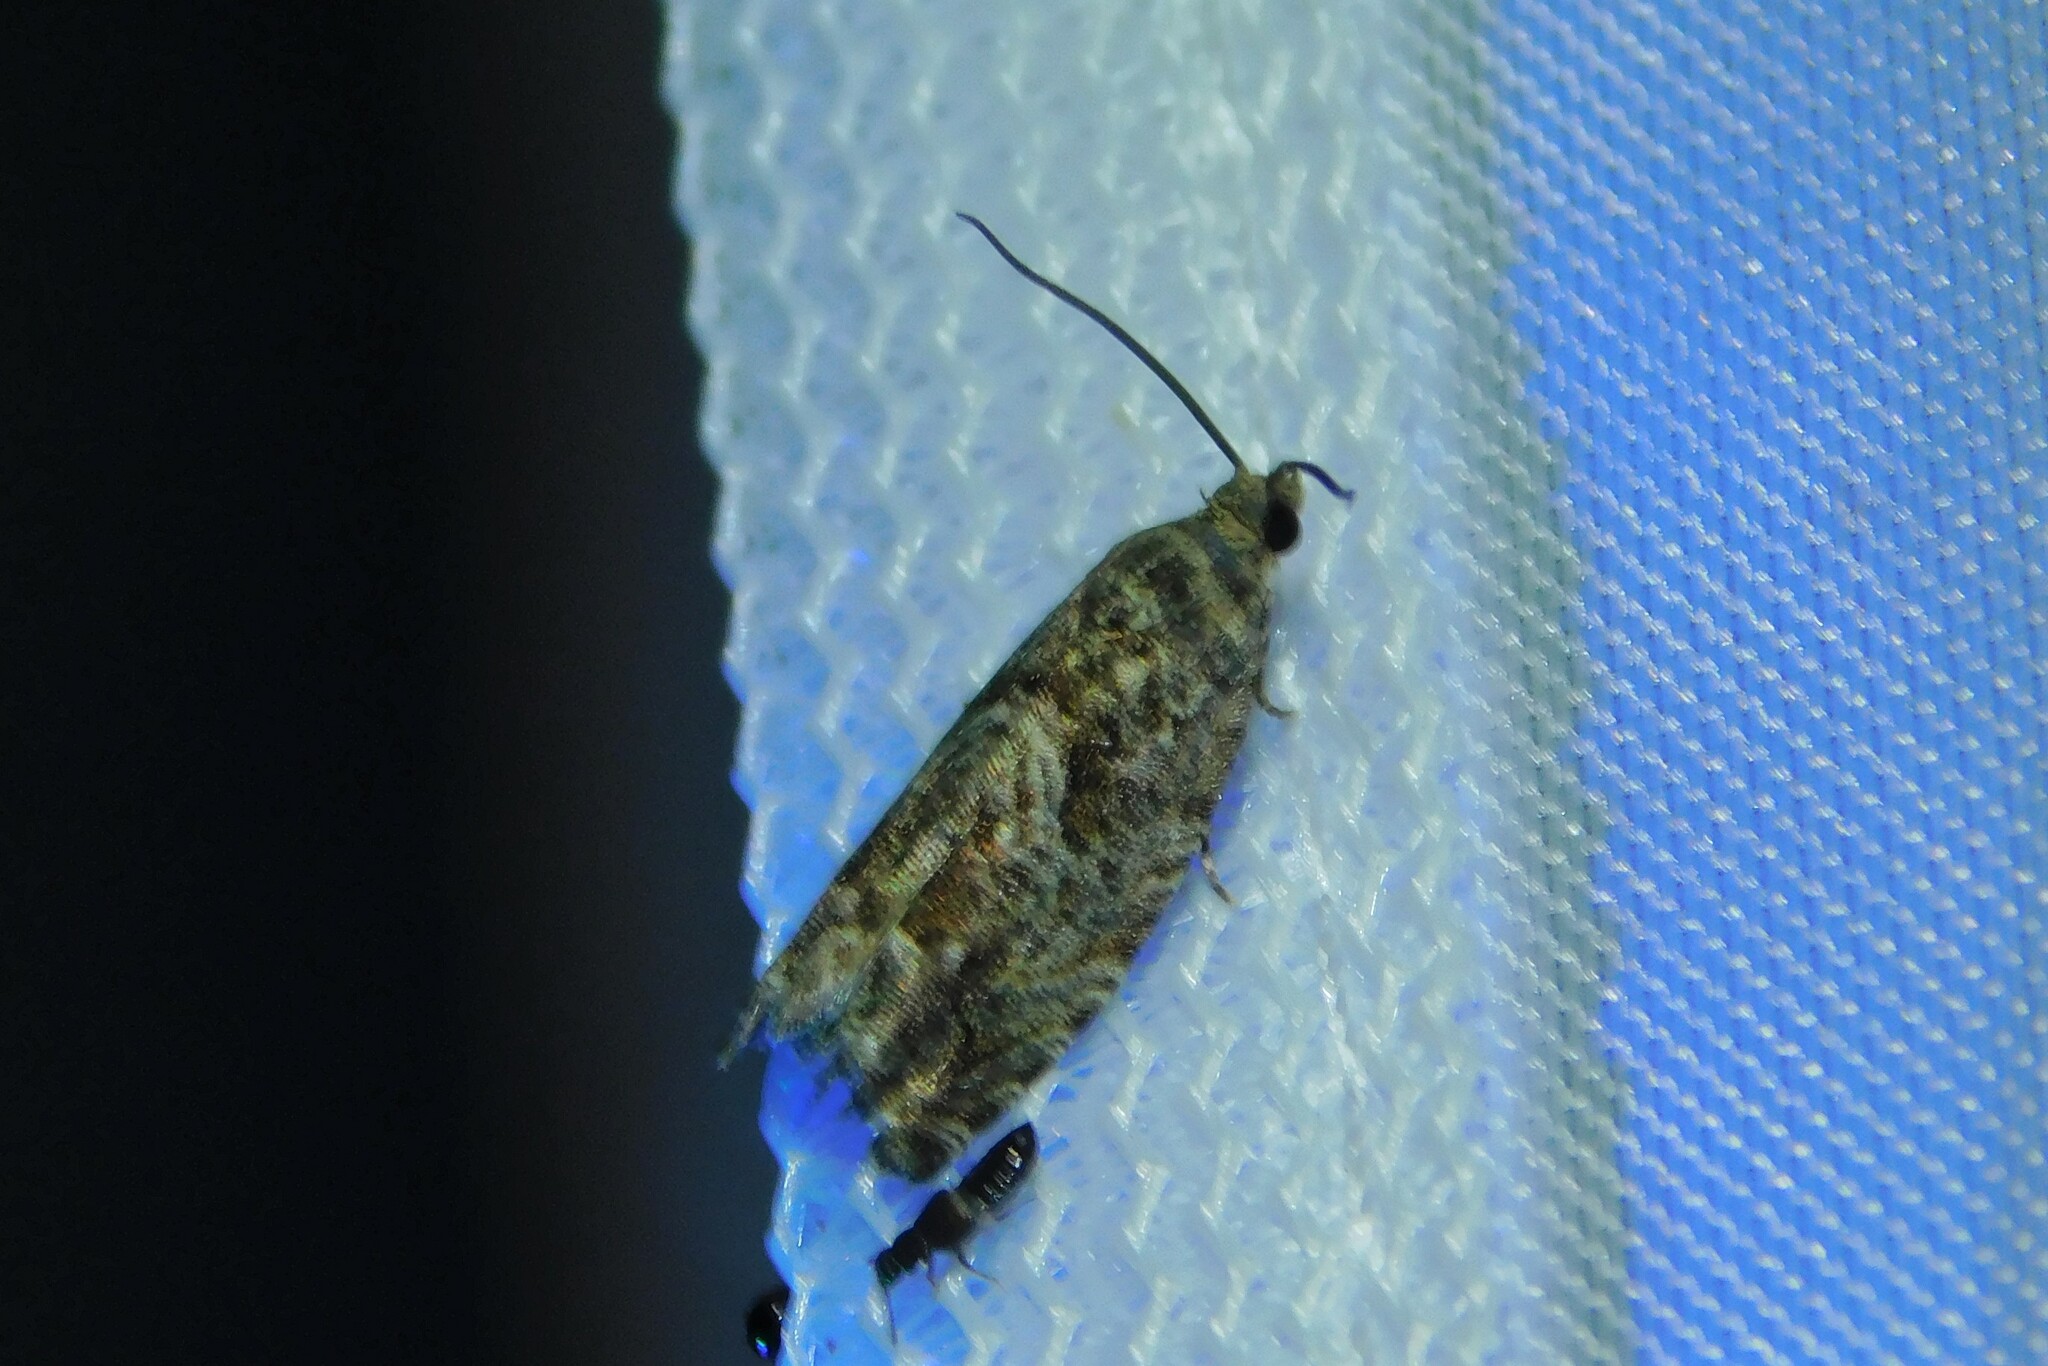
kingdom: Animalia
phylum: Arthropoda
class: Insecta
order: Lepidoptera
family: Tortricidae
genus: Cydia
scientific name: Cydia fagiglandana
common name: Large beech piercer
